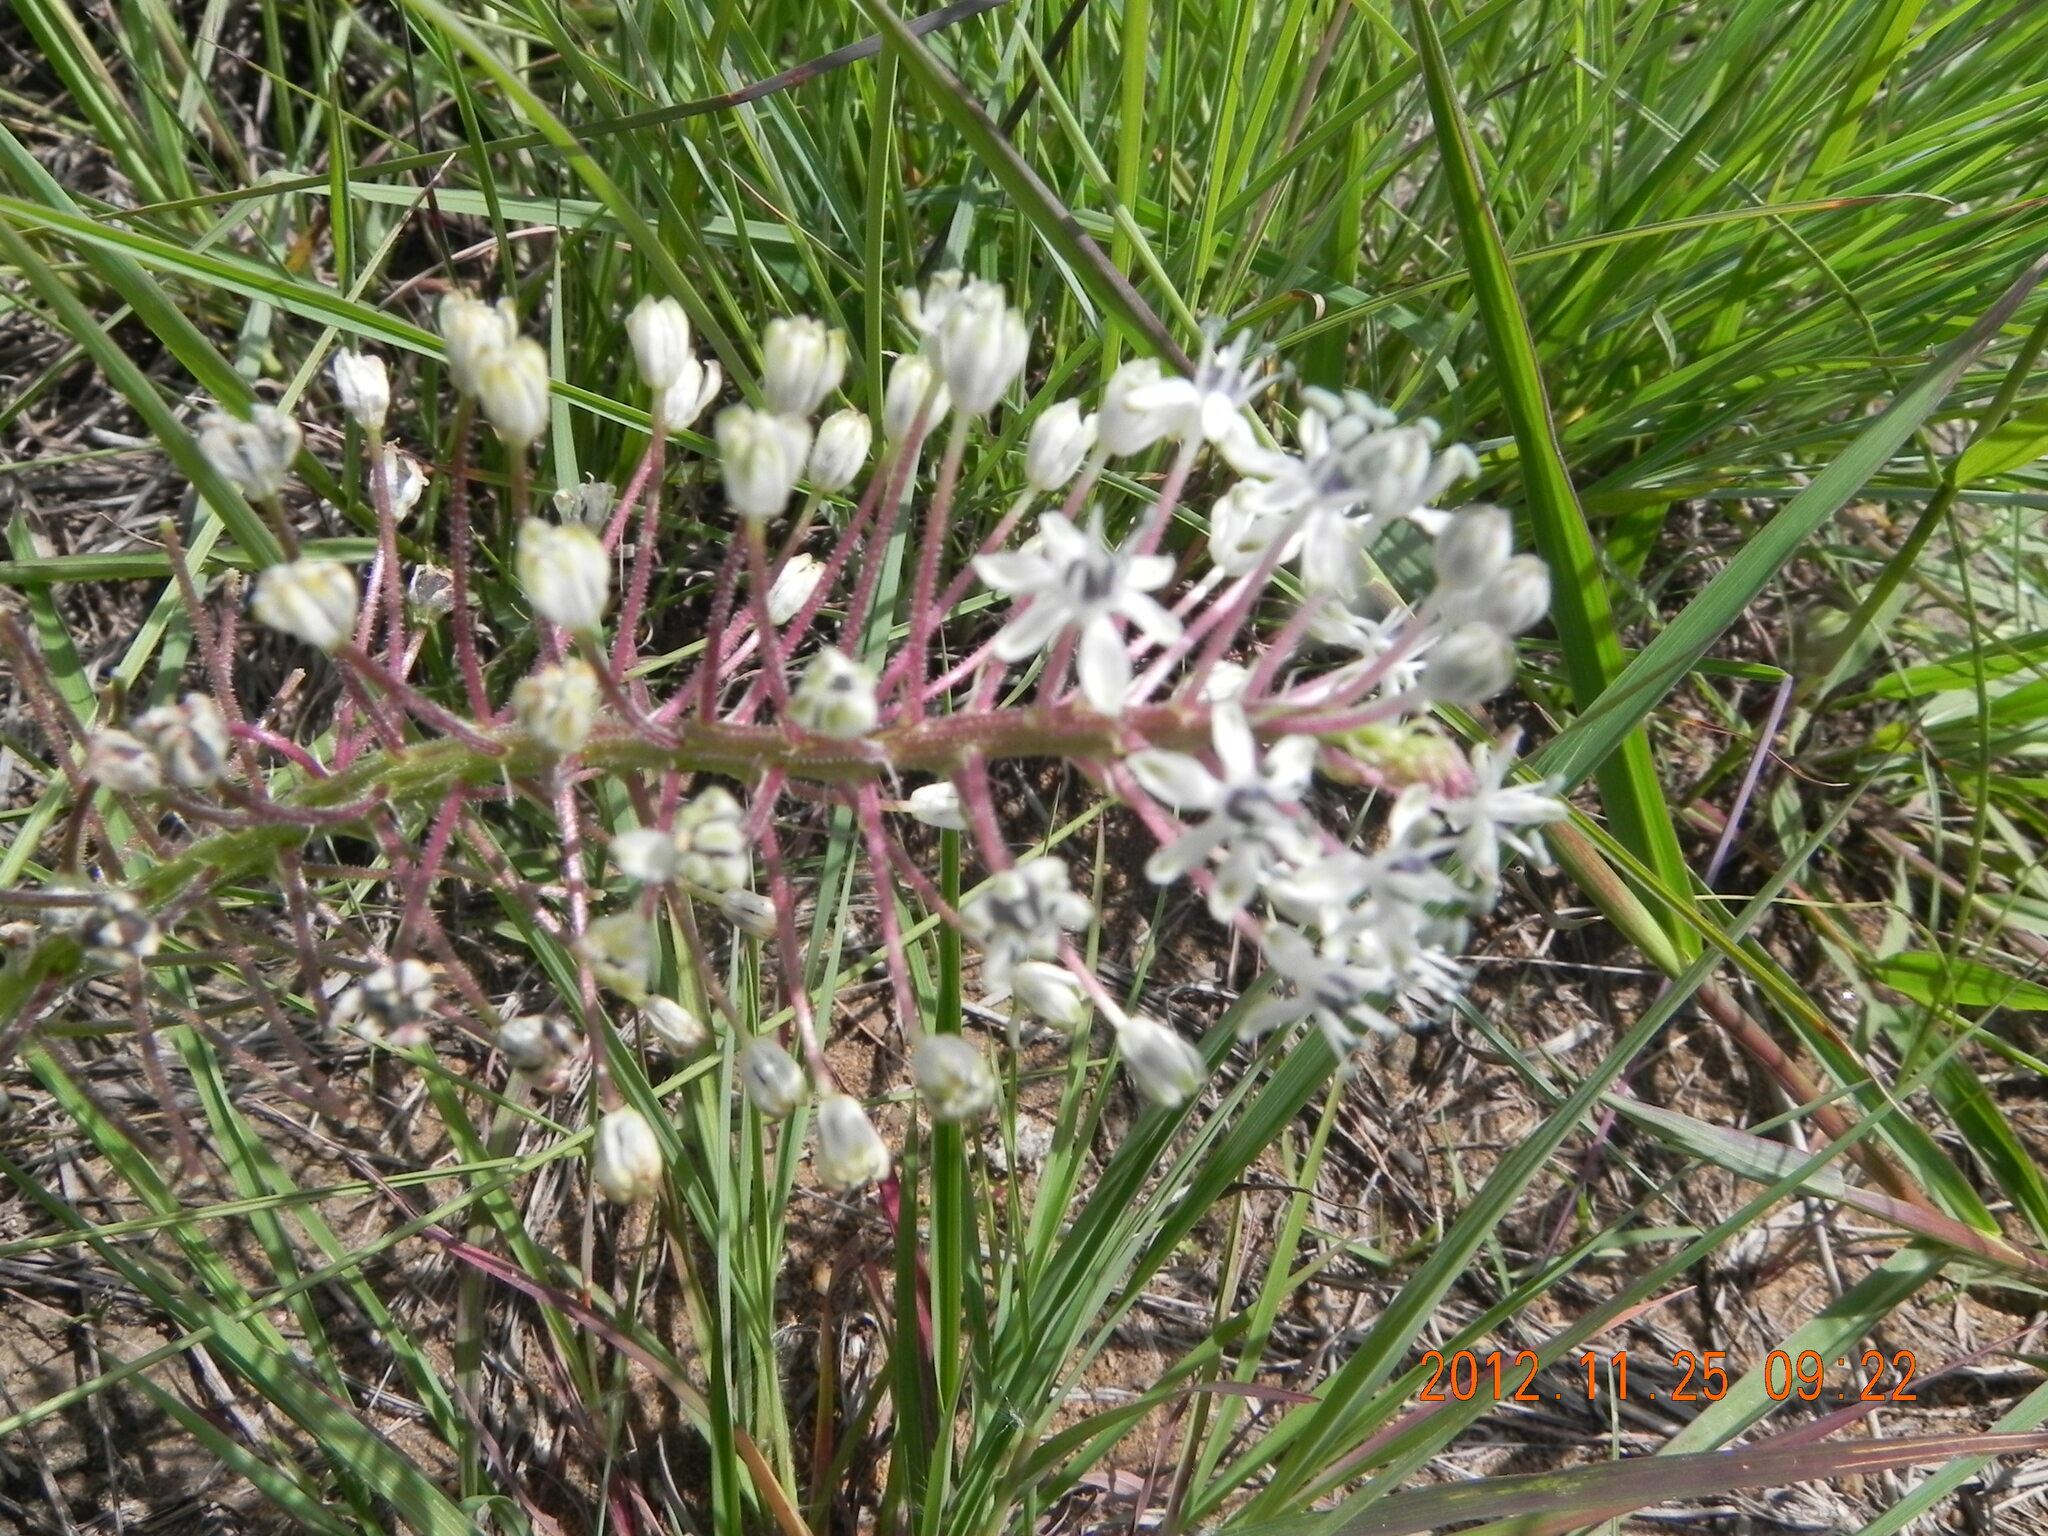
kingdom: Plantae
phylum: Tracheophyta
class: Liliopsida
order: Asparagales
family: Asparagaceae
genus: Schizocarphus
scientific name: Schizocarphus nervosus
